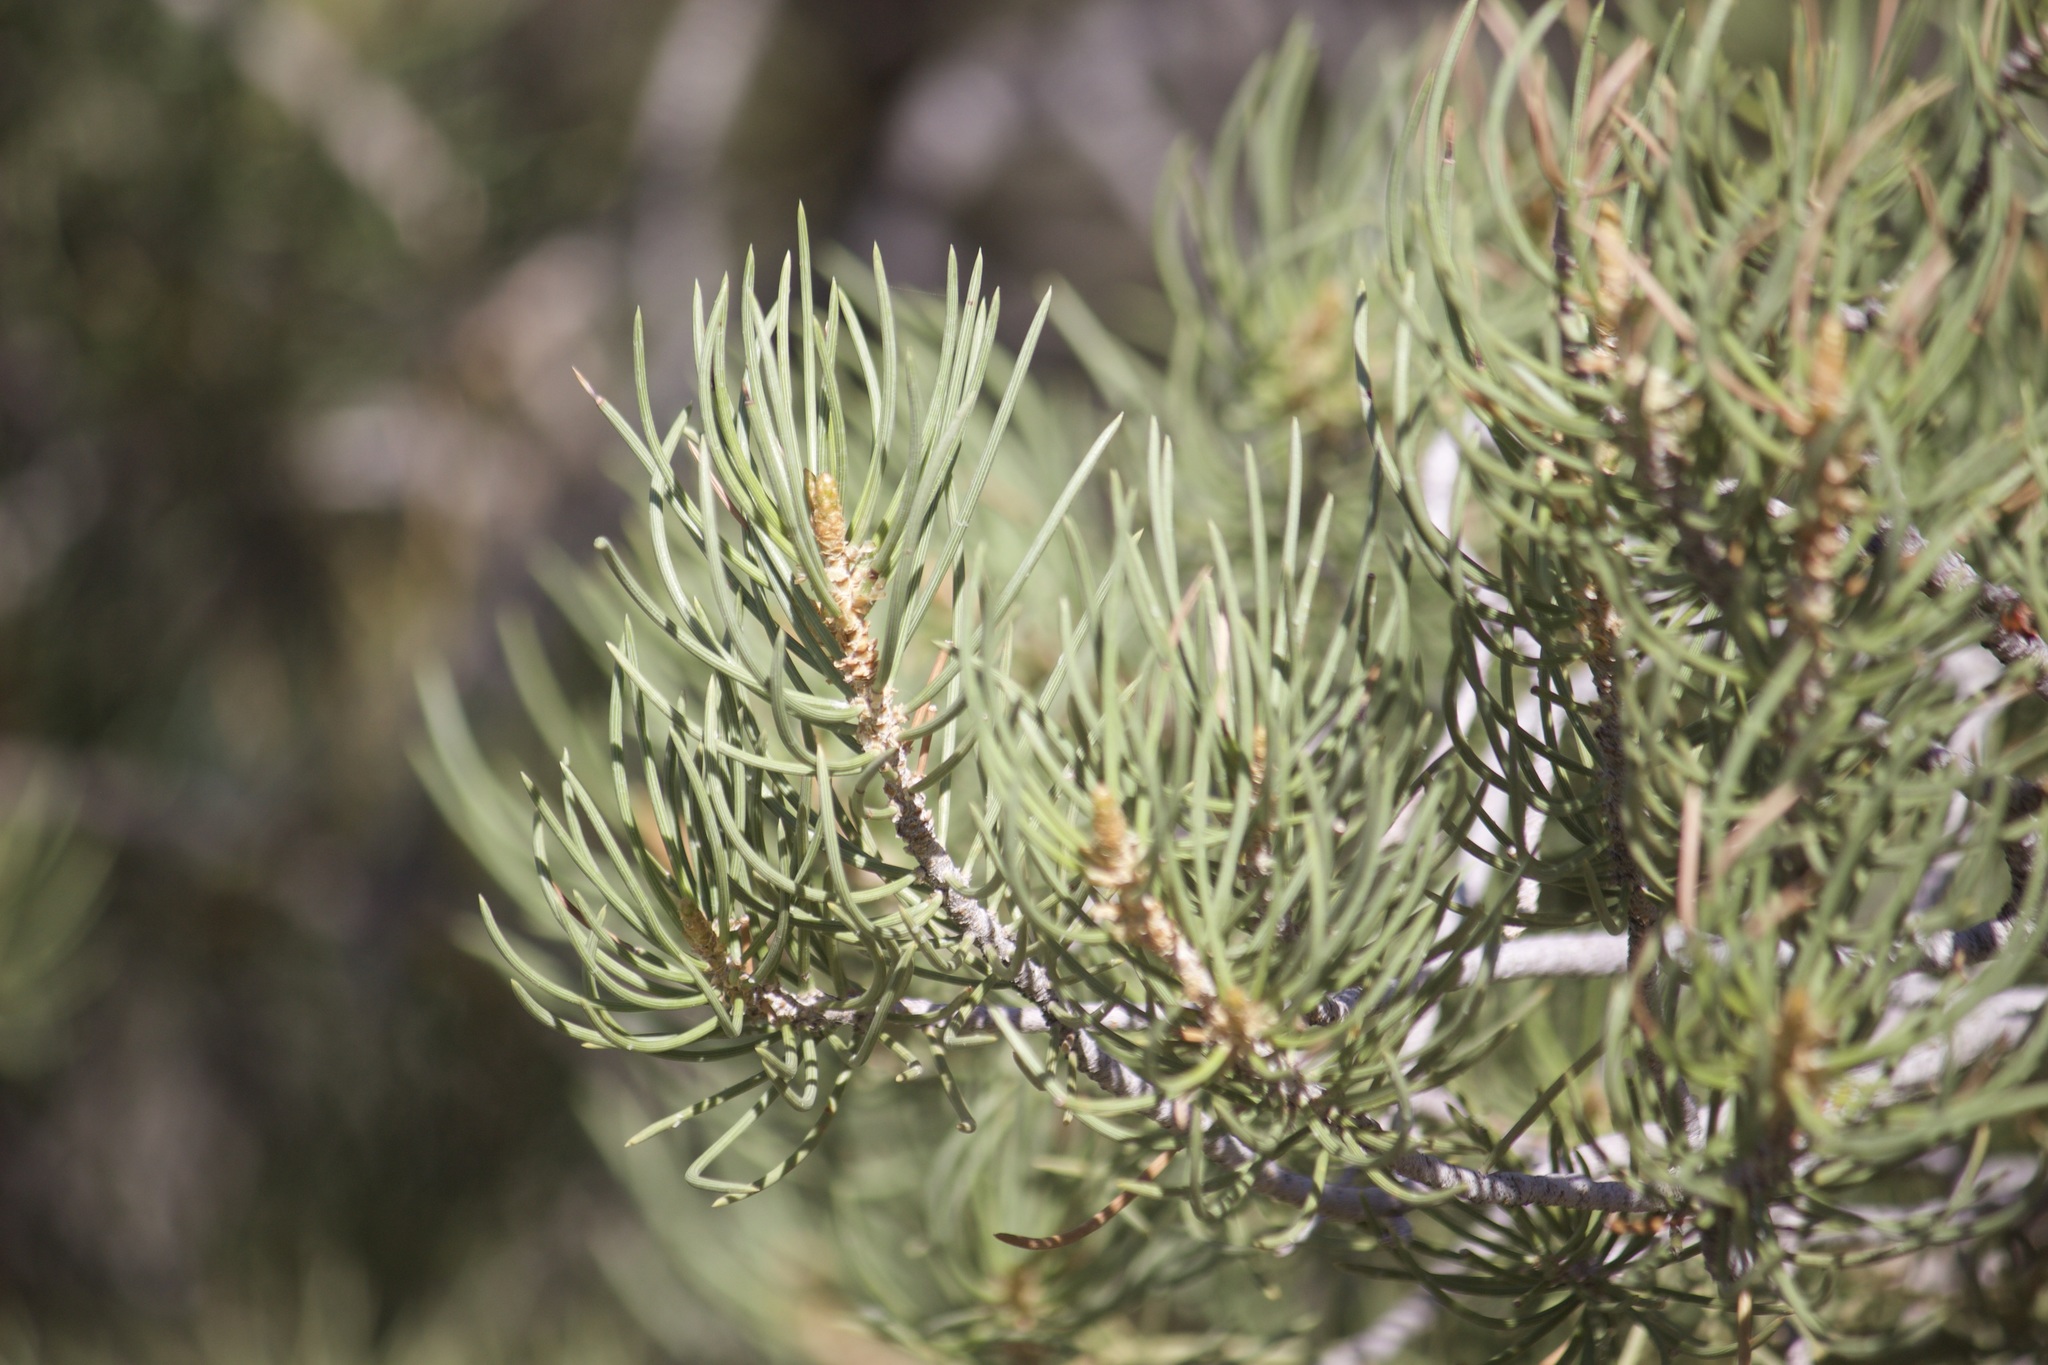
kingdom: Plantae
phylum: Tracheophyta
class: Pinopsida
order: Pinales
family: Pinaceae
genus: Pinus
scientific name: Pinus monophylla
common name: One-leaved nut pine
